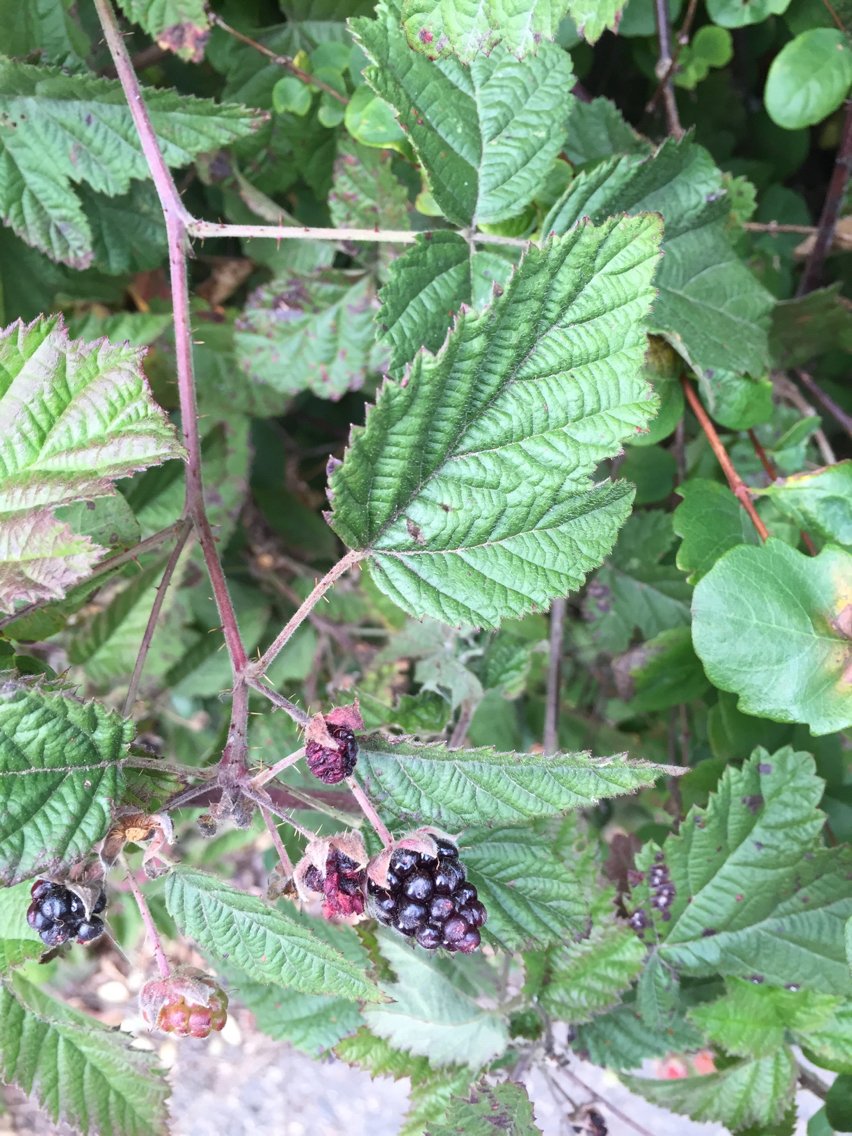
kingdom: Plantae
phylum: Tracheophyta
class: Magnoliopsida
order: Rosales
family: Rosaceae
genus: Rubus
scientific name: Rubus ursinus
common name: Pacific blackberry
